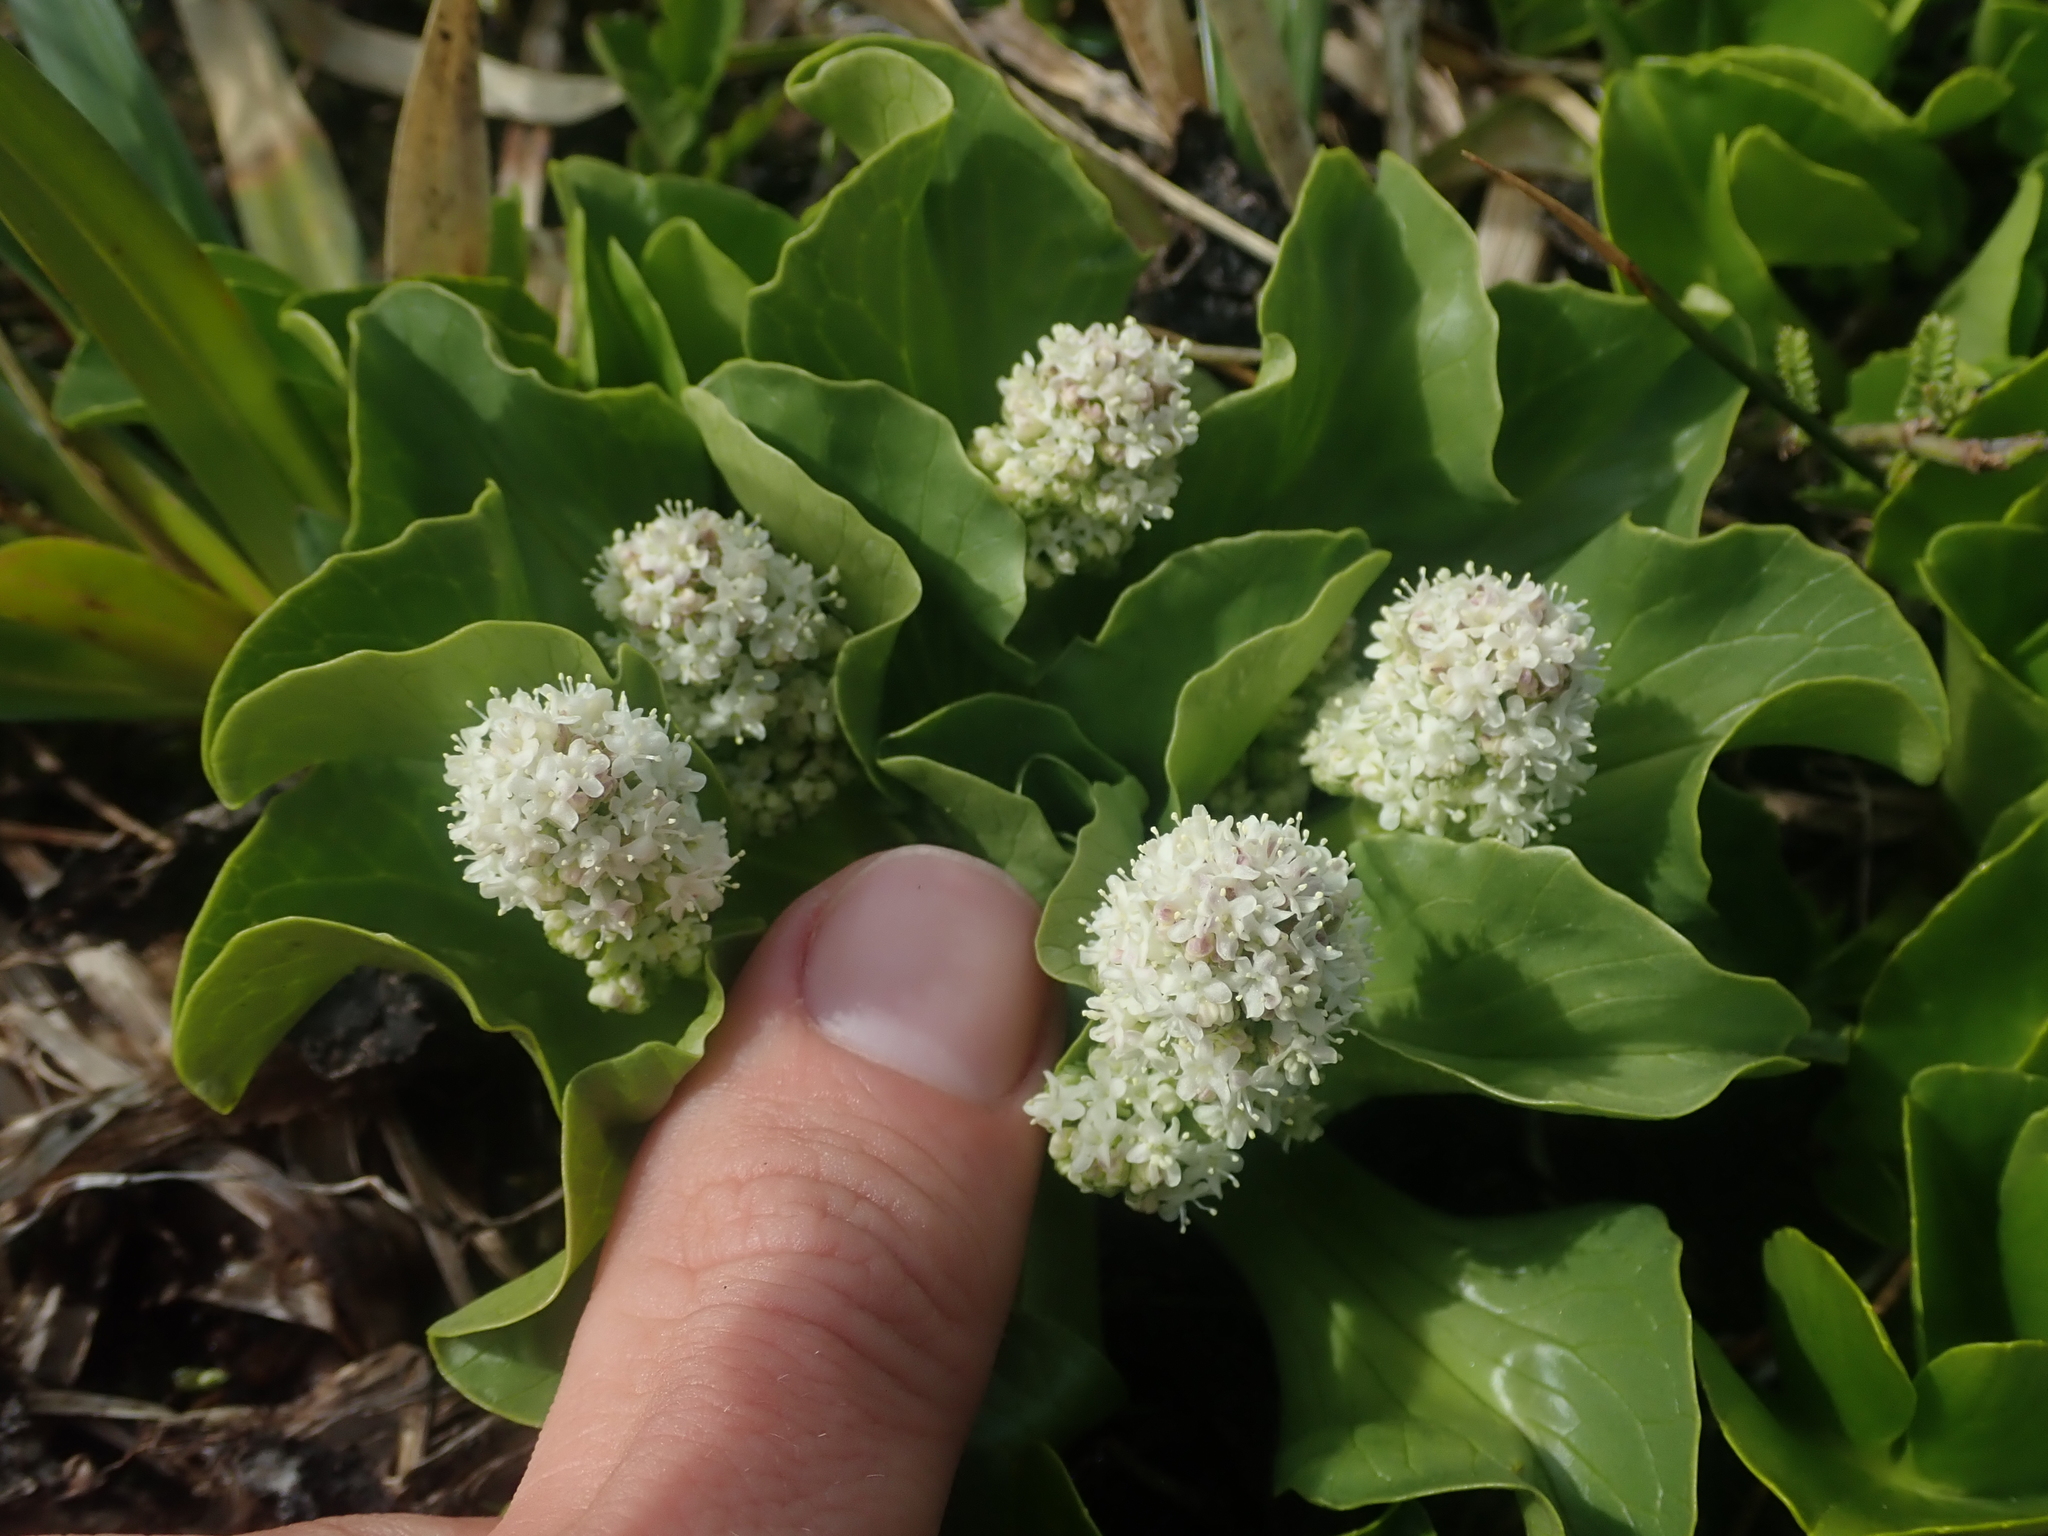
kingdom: Plantae
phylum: Tracheophyta
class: Magnoliopsida
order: Dipsacales
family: Caprifoliaceae
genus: Valeriana
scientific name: Valeriana macrorhiza
